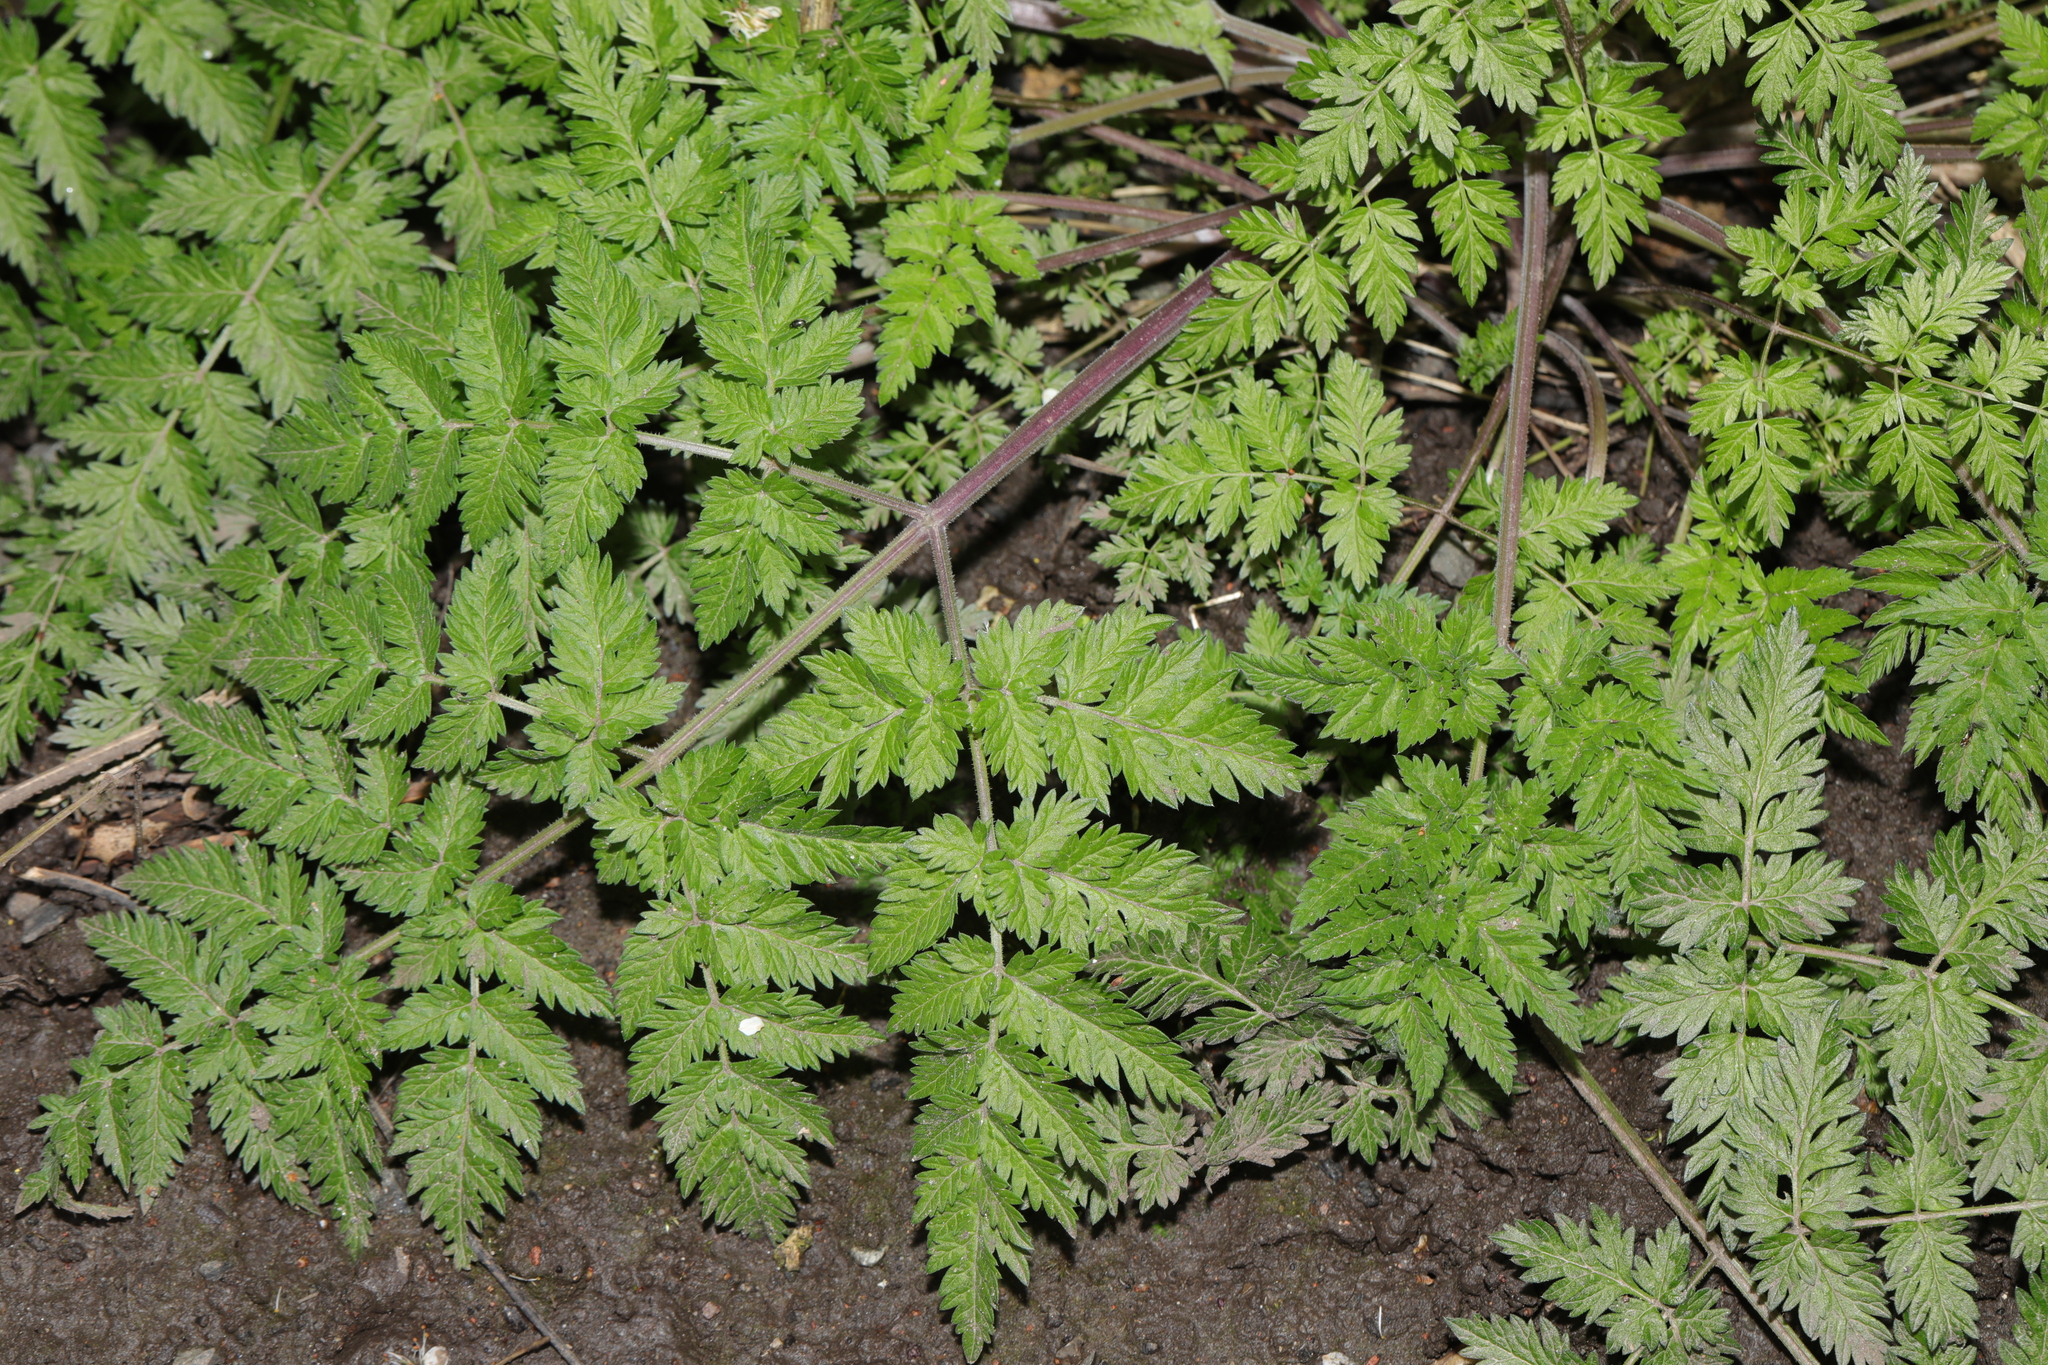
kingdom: Plantae
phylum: Tracheophyta
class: Magnoliopsida
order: Apiales
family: Apiaceae
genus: Anthriscus
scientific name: Anthriscus sylvestris
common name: Cow parsley
